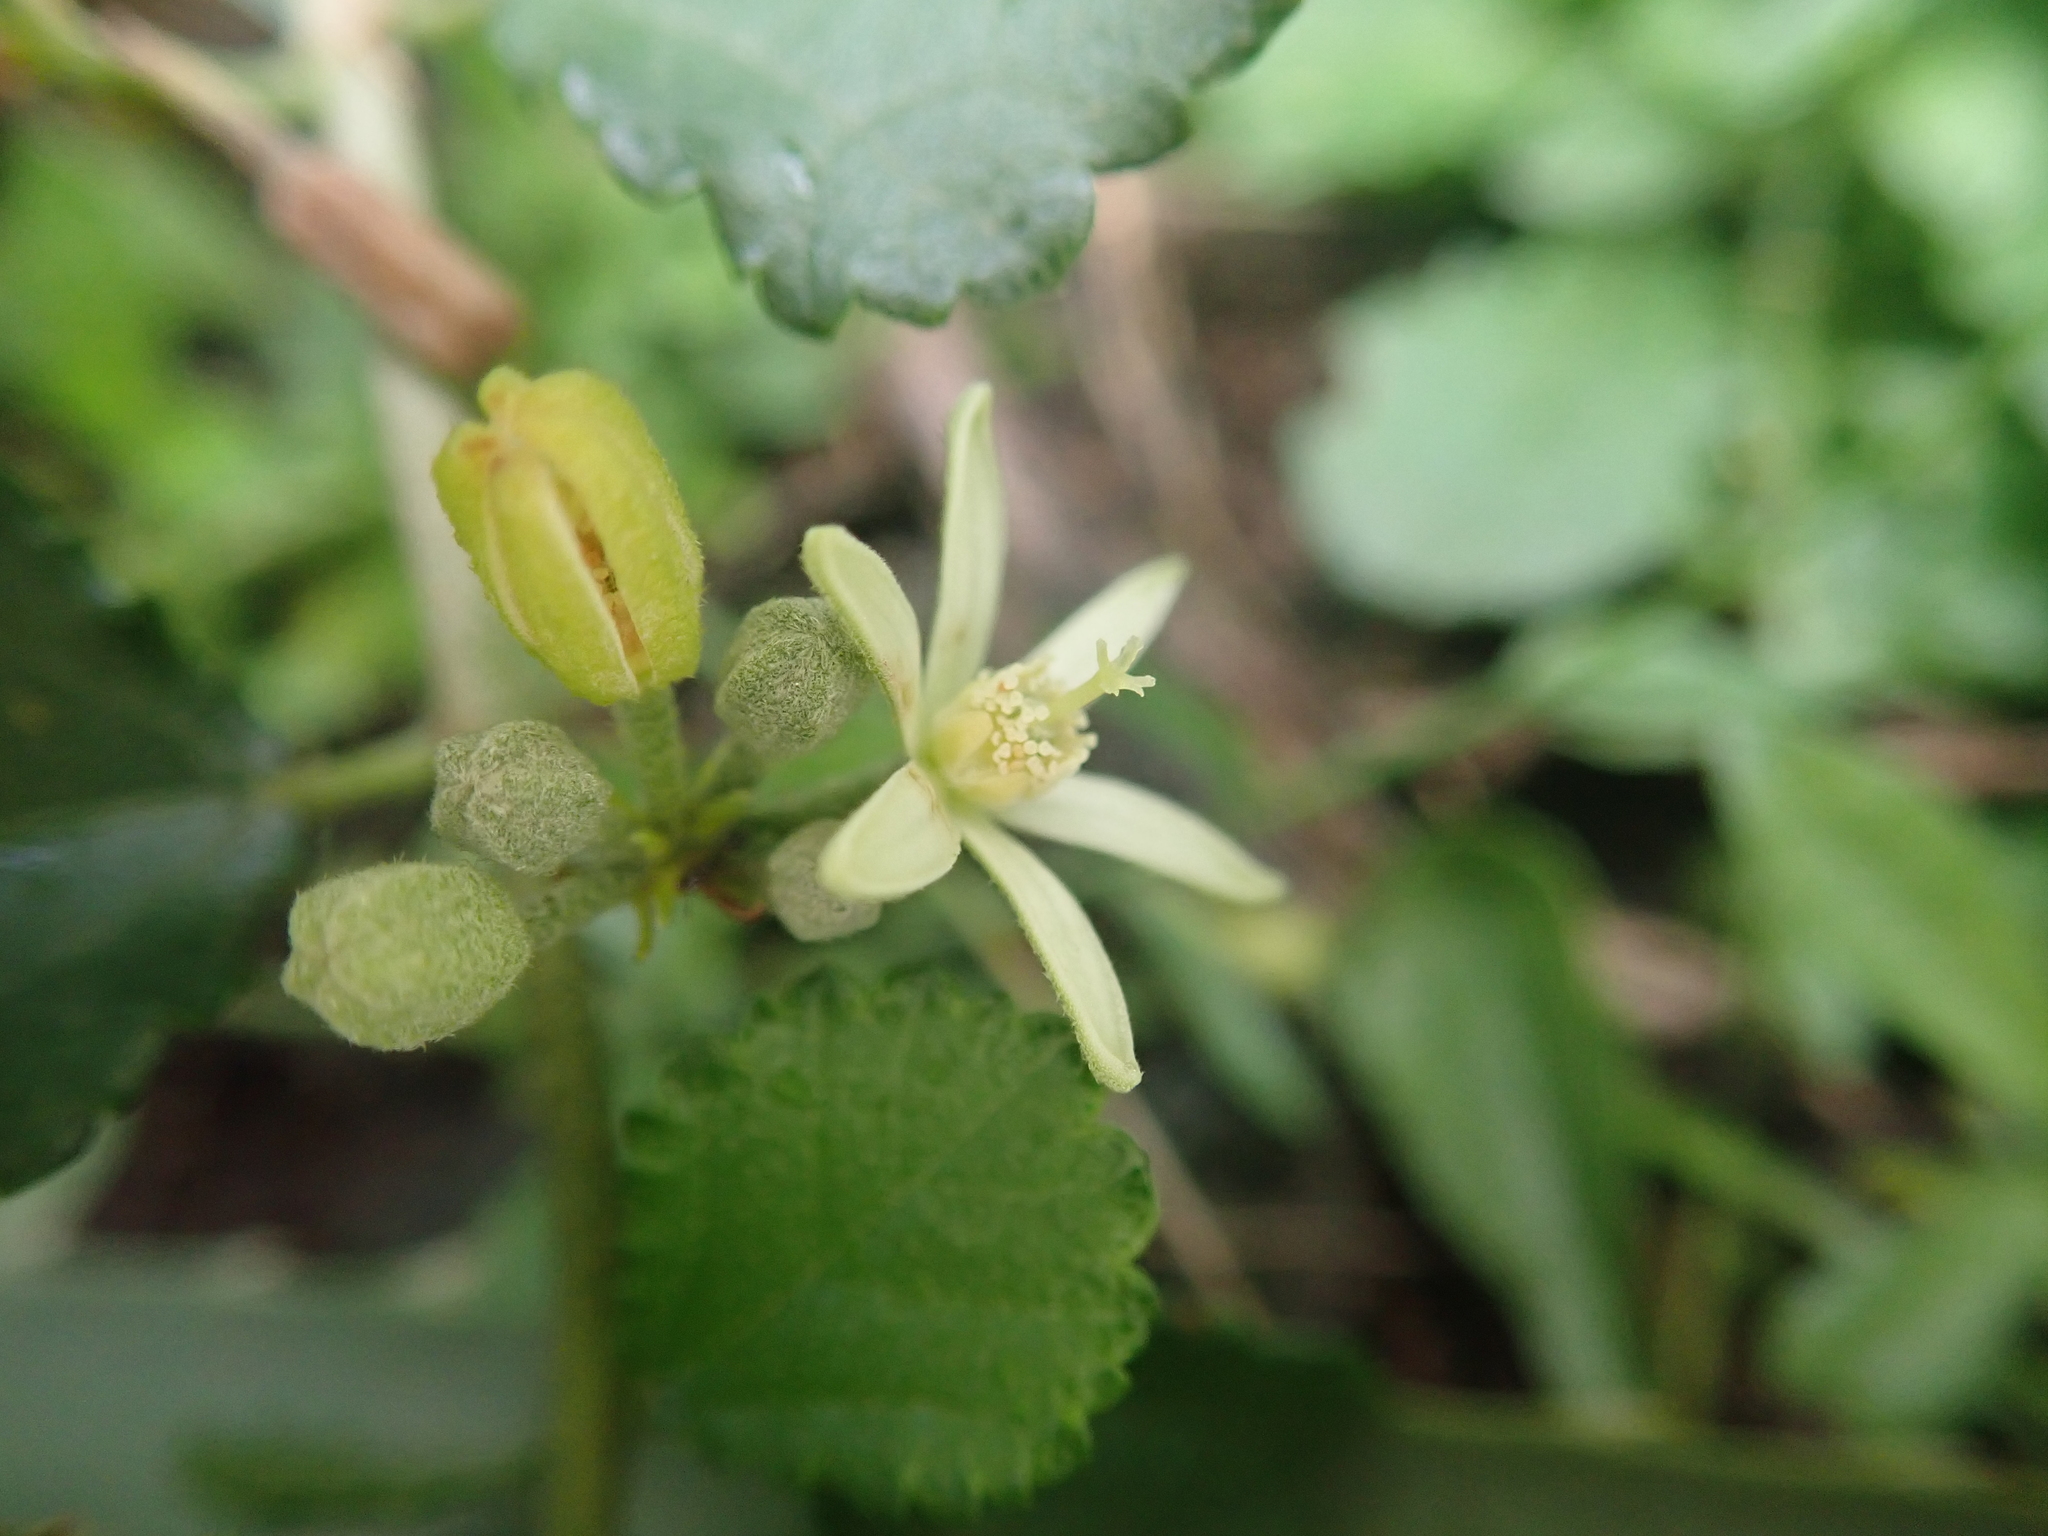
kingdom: Plantae
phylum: Tracheophyta
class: Magnoliopsida
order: Malvales
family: Malvaceae
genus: Grewia
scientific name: Grewia piscatorum
